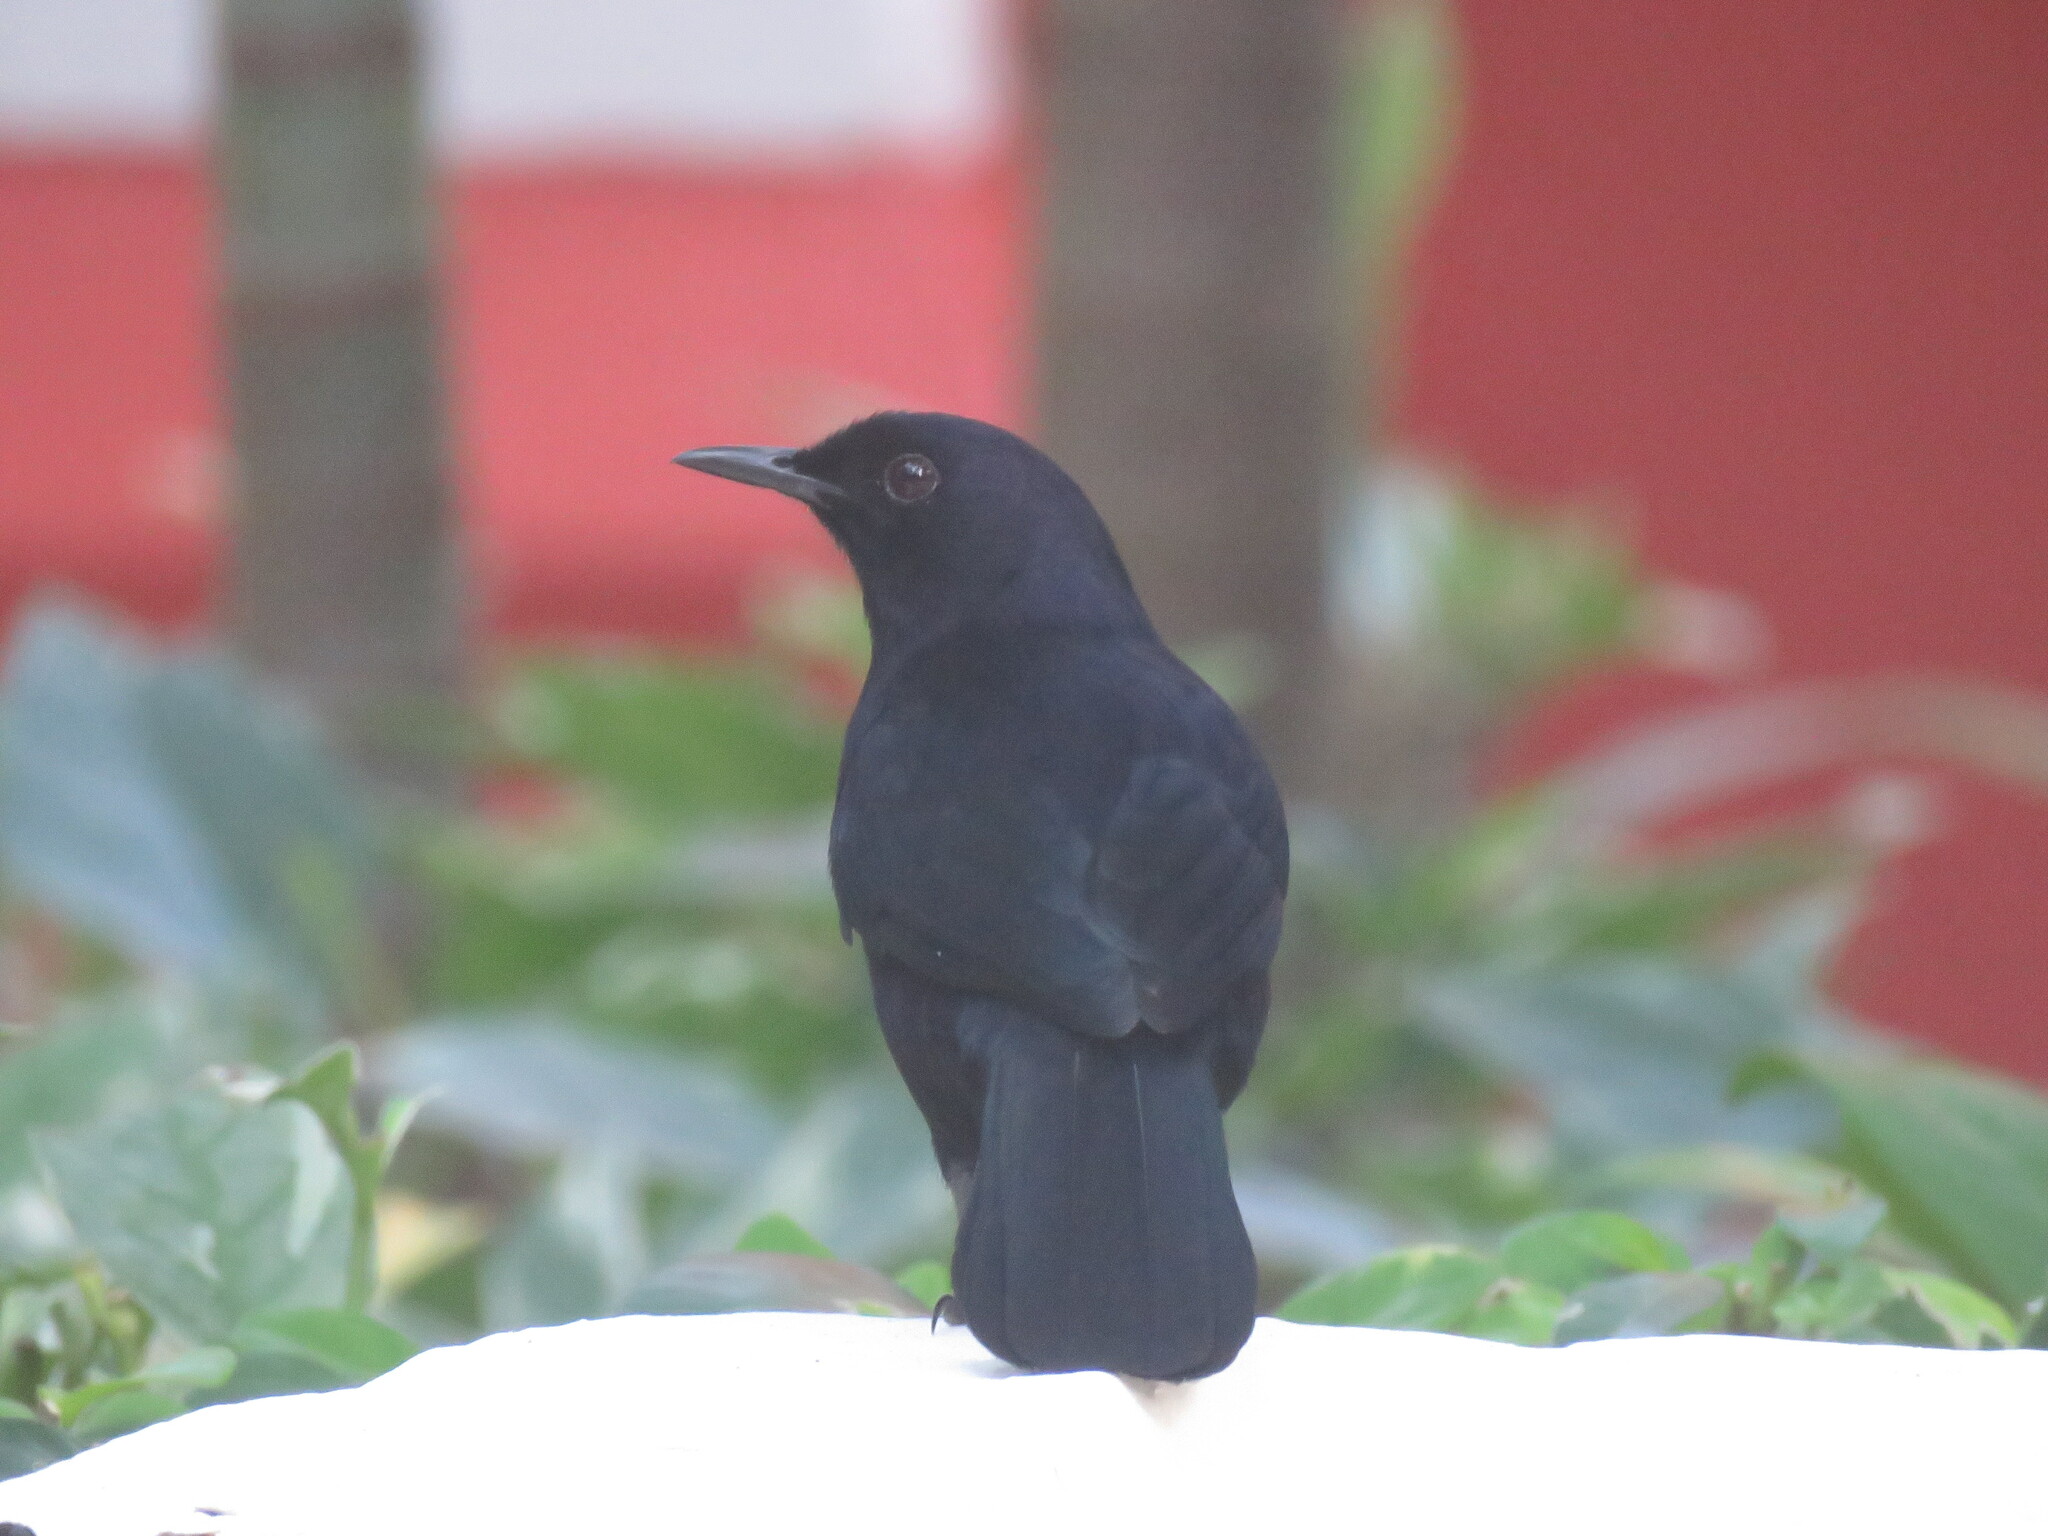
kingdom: Animalia
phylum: Chordata
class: Aves
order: Passeriformes
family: Mimidae
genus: Melanoptila
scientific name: Melanoptila glabrirostris
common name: Black catbird
